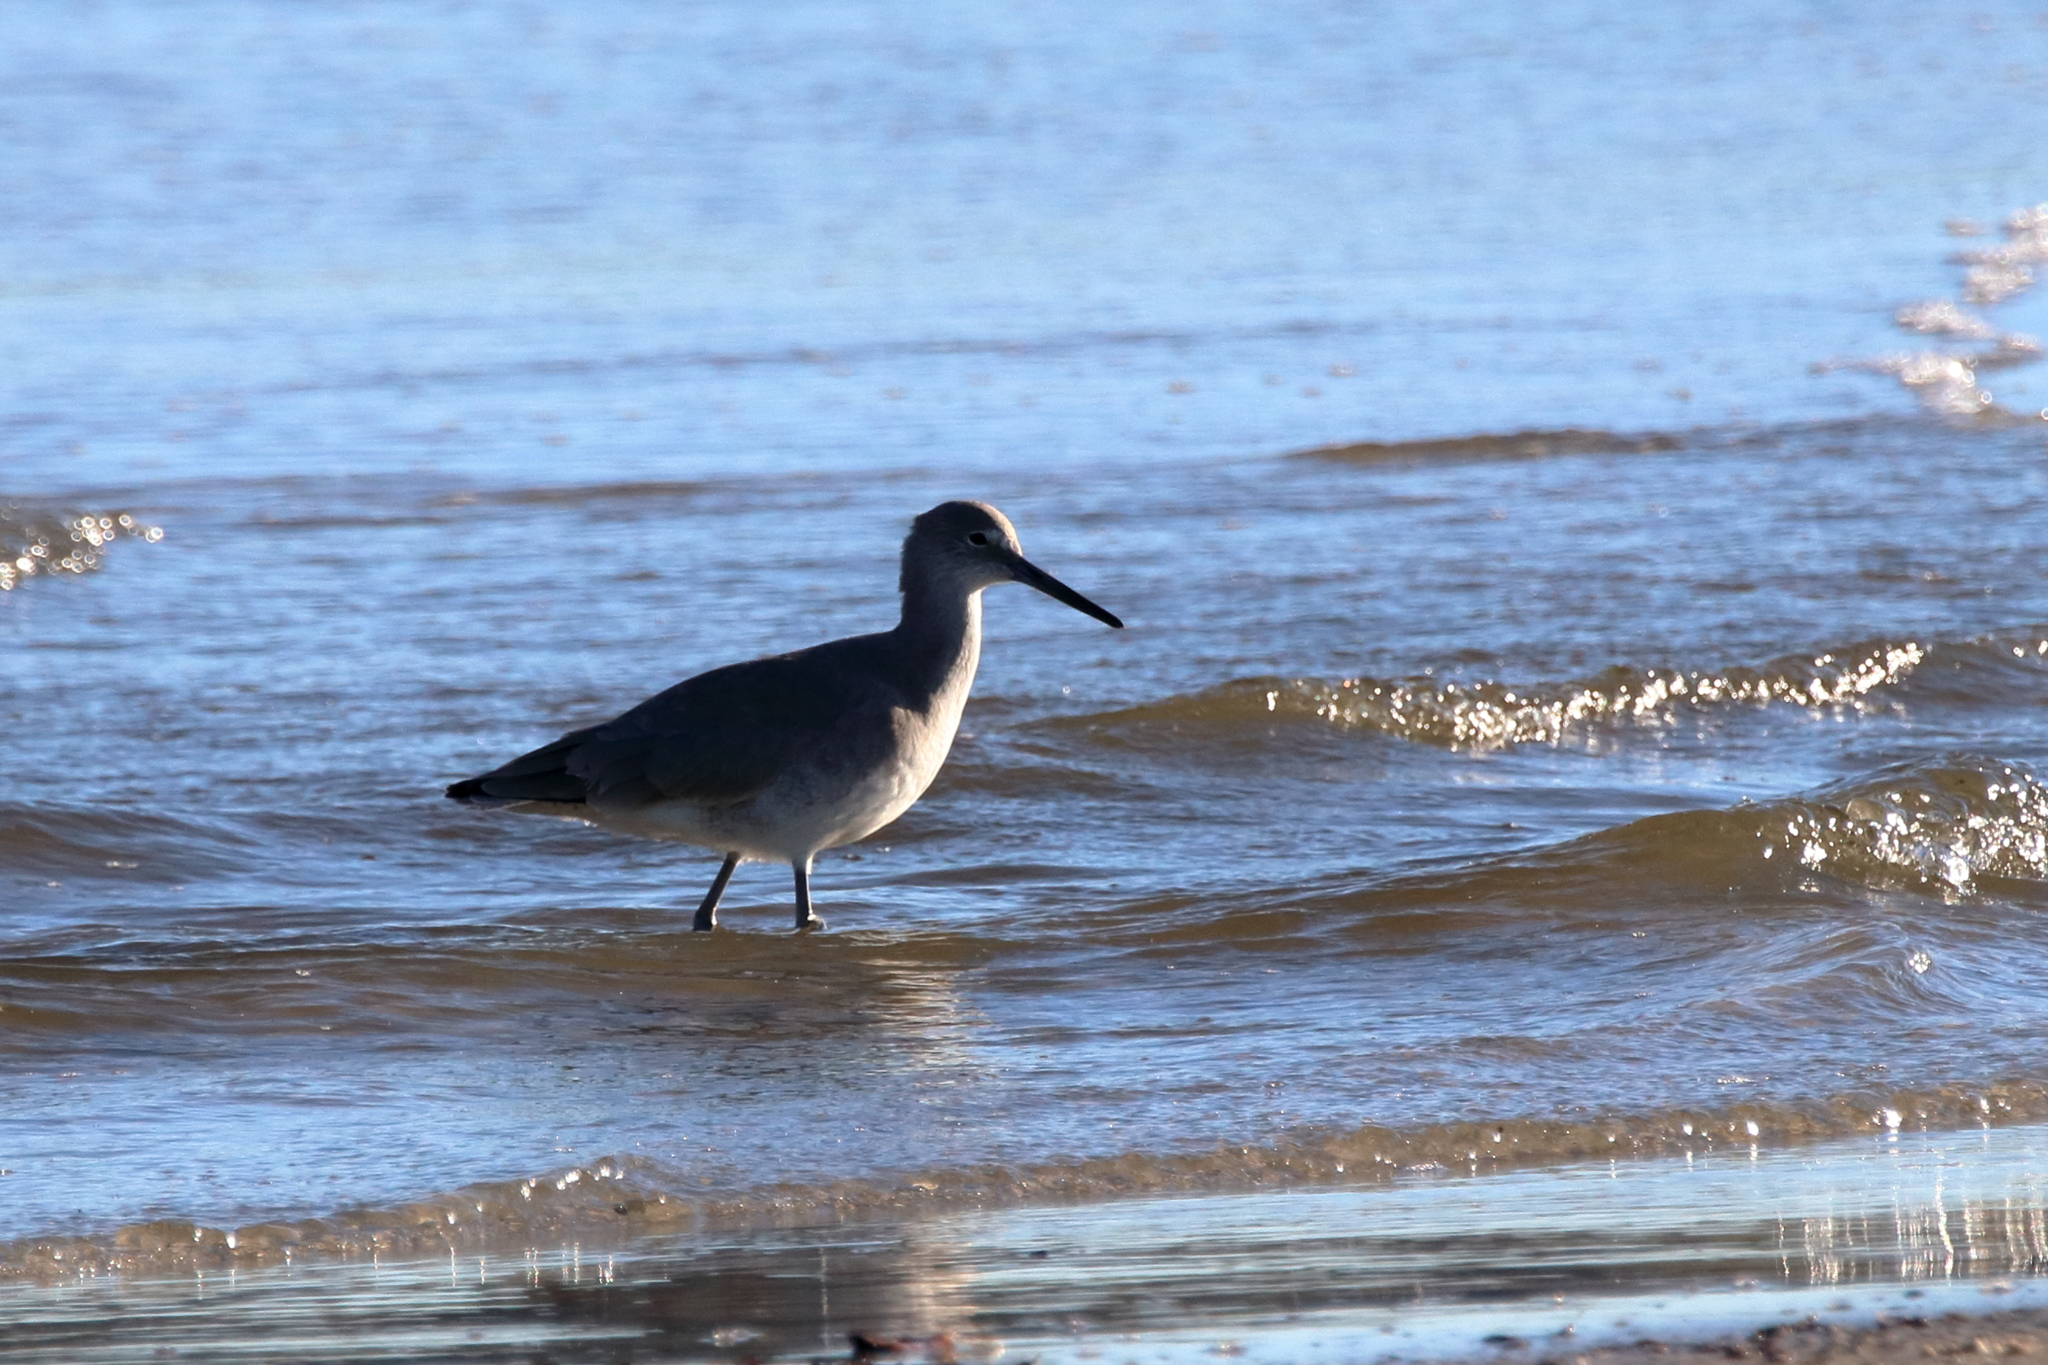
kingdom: Animalia
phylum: Chordata
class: Aves
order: Charadriiformes
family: Scolopacidae
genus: Tringa
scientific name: Tringa semipalmata
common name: Willet
